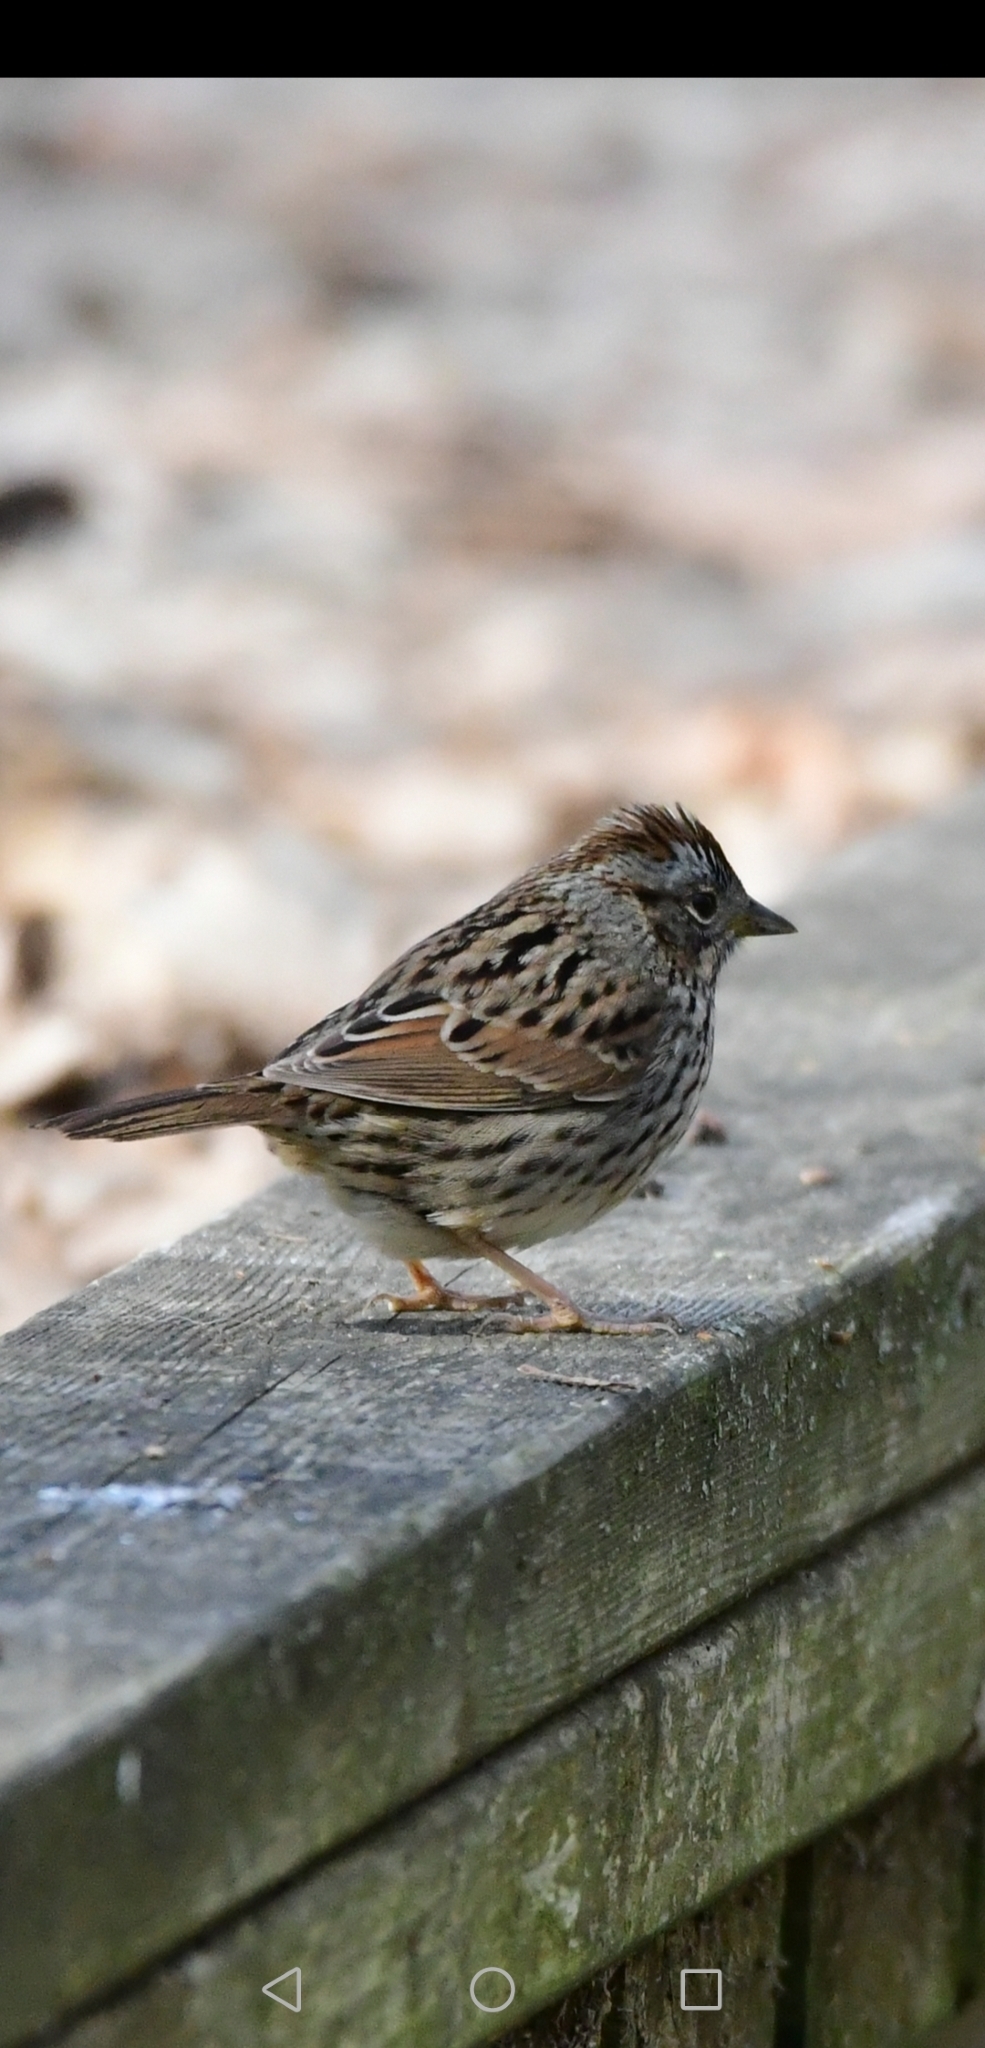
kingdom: Animalia
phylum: Chordata
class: Aves
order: Passeriformes
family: Passerellidae
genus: Melospiza
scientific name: Melospiza lincolnii
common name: Lincoln's sparrow
